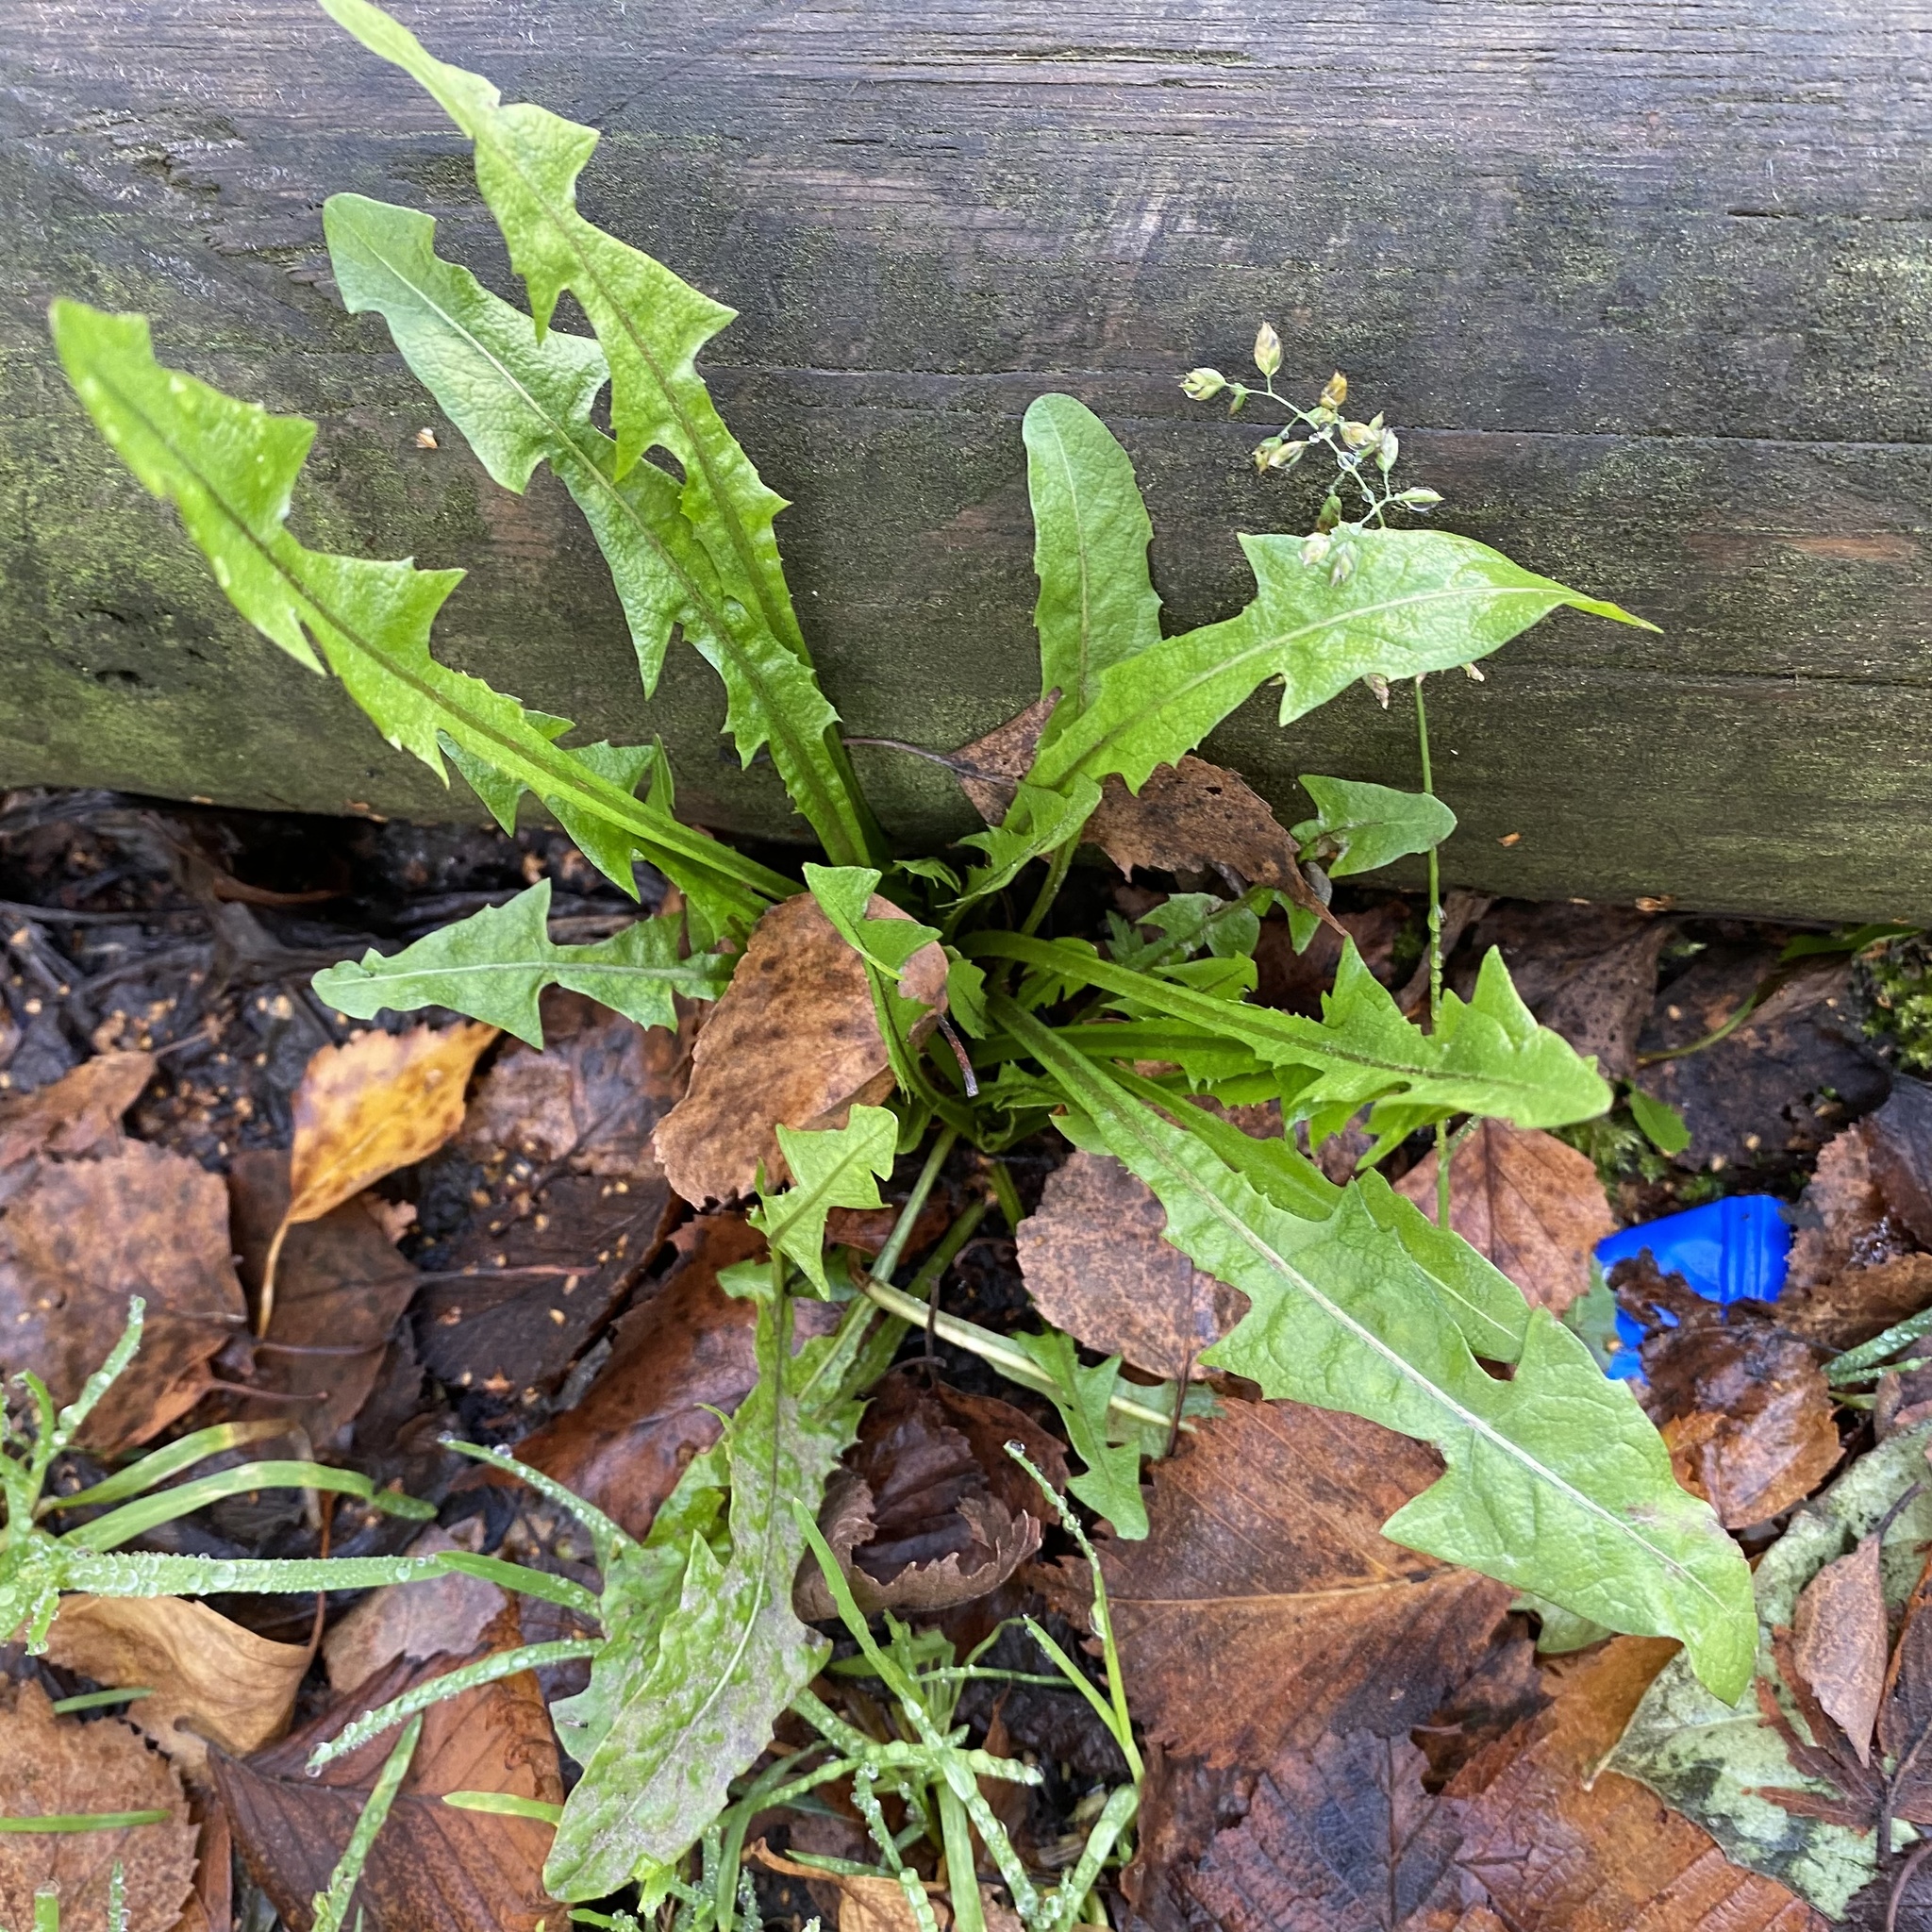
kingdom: Plantae
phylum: Tracheophyta
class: Magnoliopsida
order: Asterales
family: Asteraceae
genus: Taraxacum
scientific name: Taraxacum officinale
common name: Common dandelion
